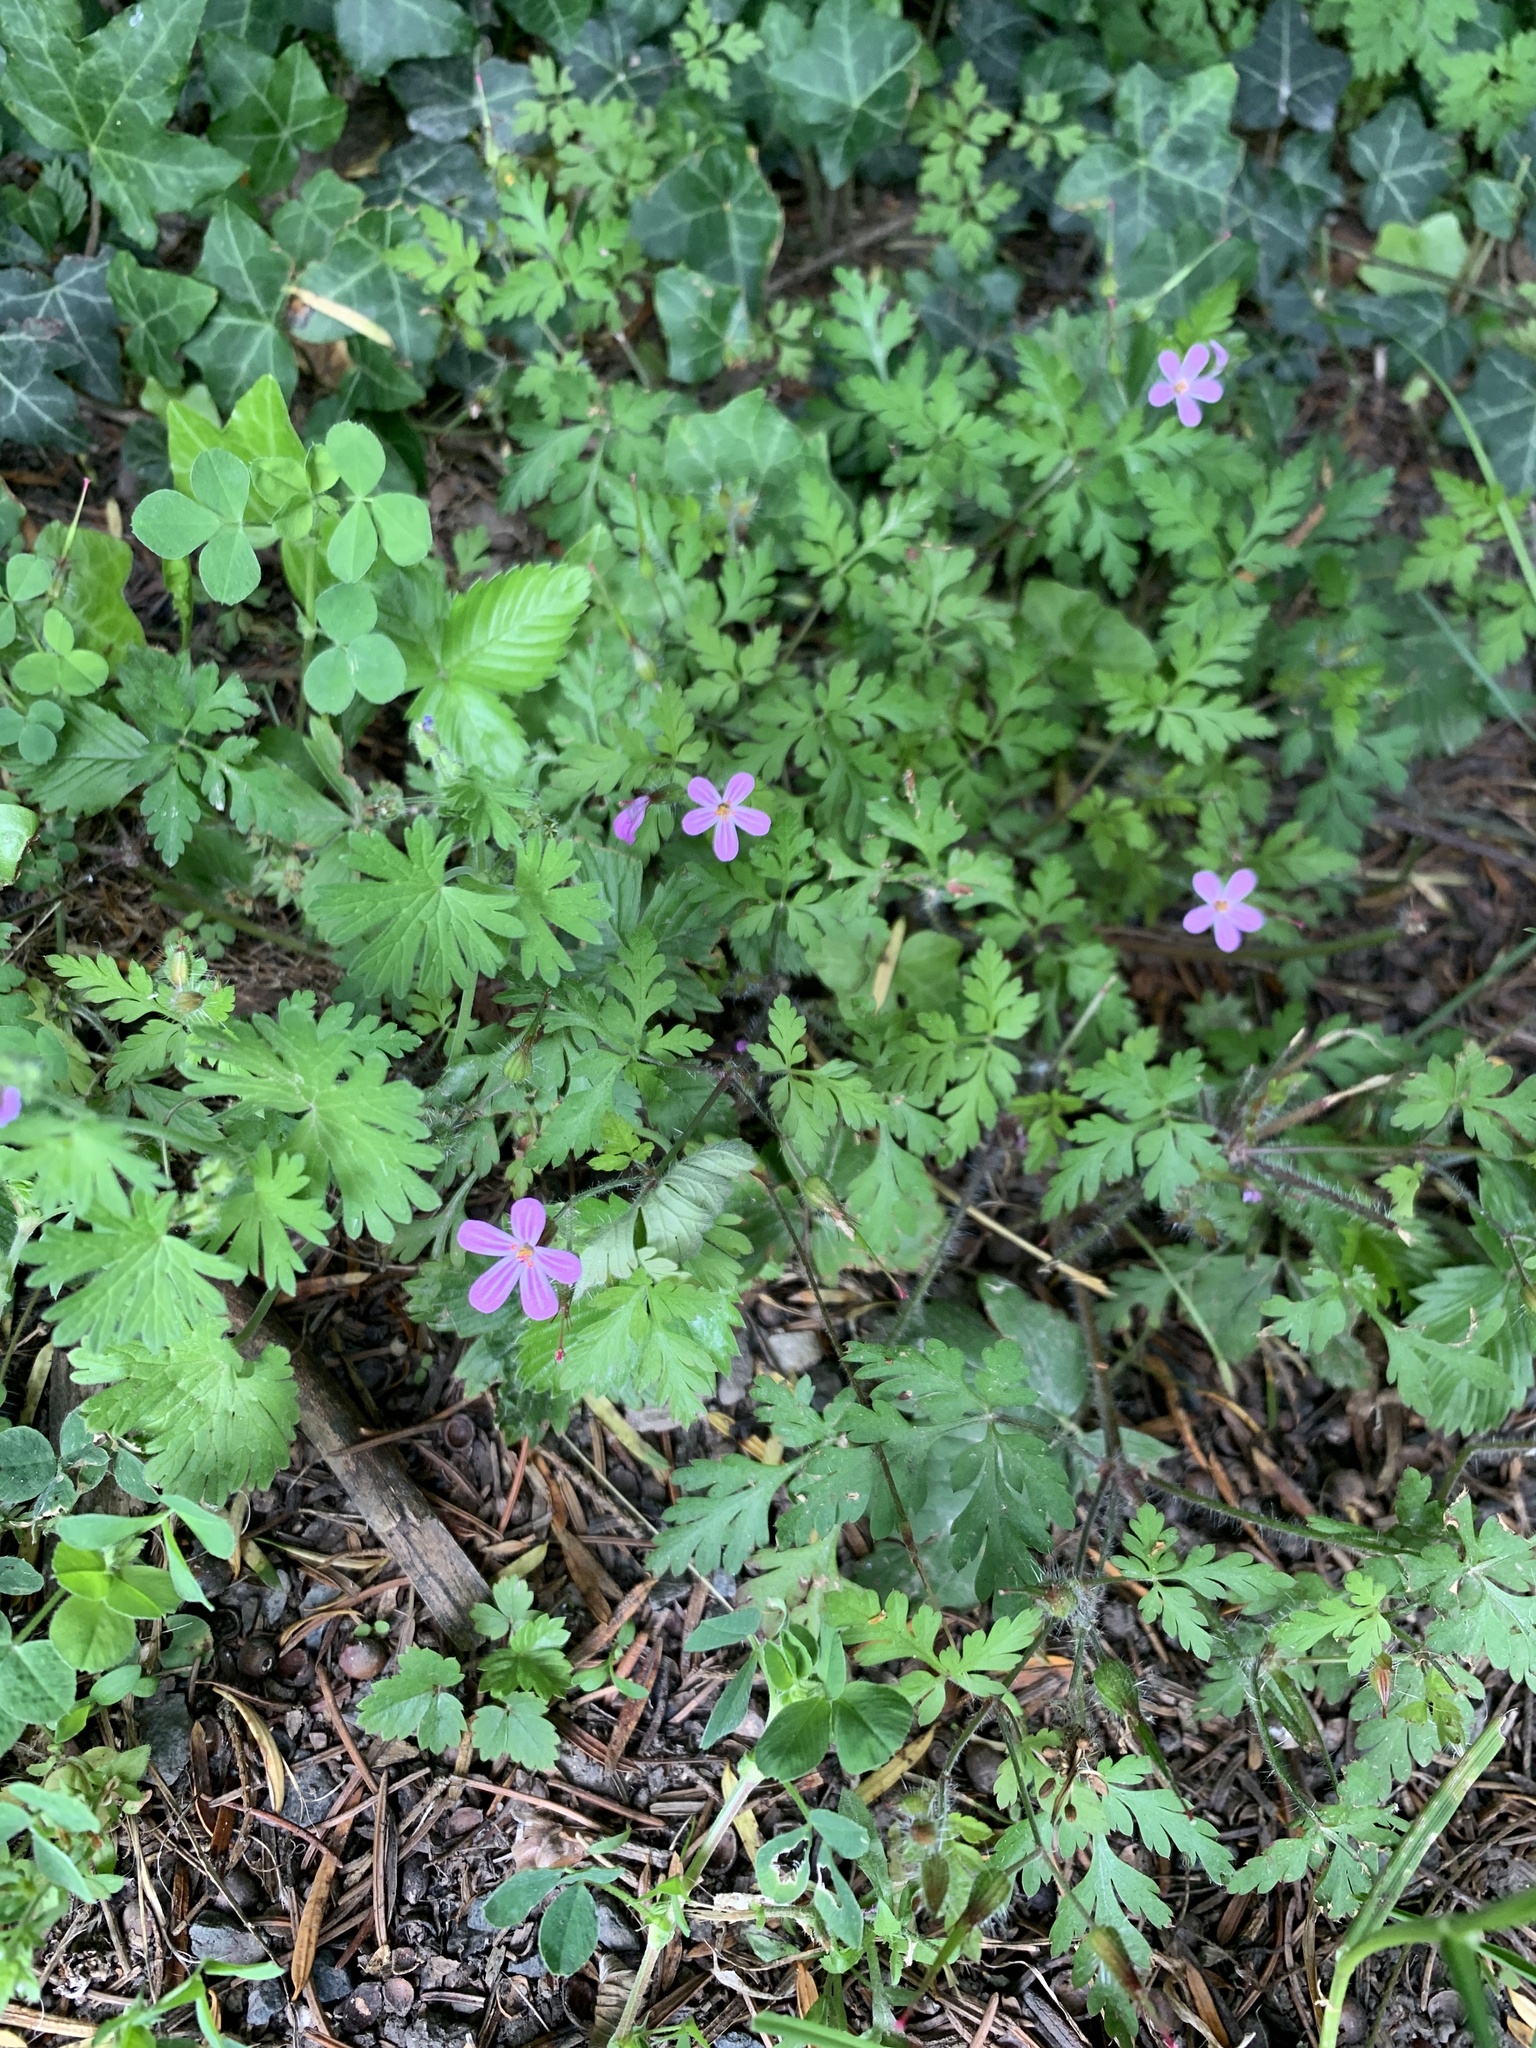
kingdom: Plantae
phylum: Tracheophyta
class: Magnoliopsida
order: Geraniales
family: Geraniaceae
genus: Geranium
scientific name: Geranium robertianum
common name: Herb-robert
